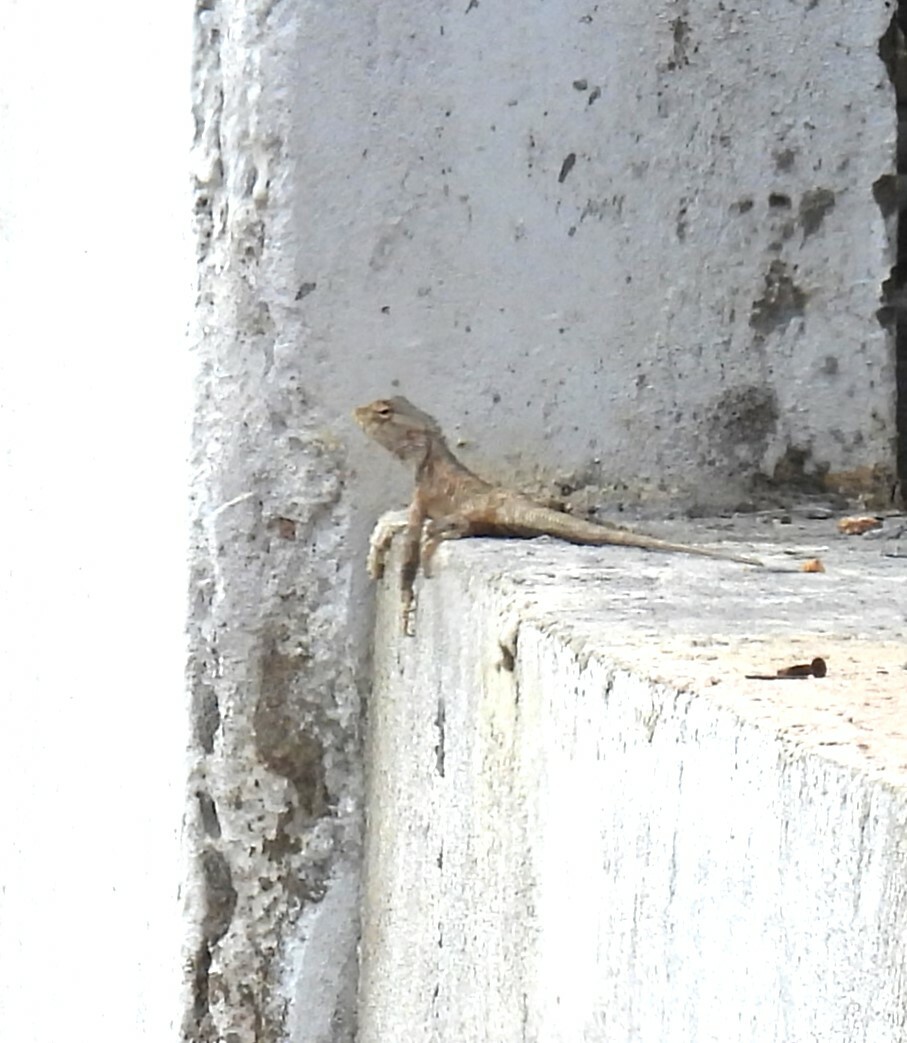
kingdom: Animalia
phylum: Chordata
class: Squamata
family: Agamidae
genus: Calotes
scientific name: Calotes versicolor
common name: Oriental garden lizard
